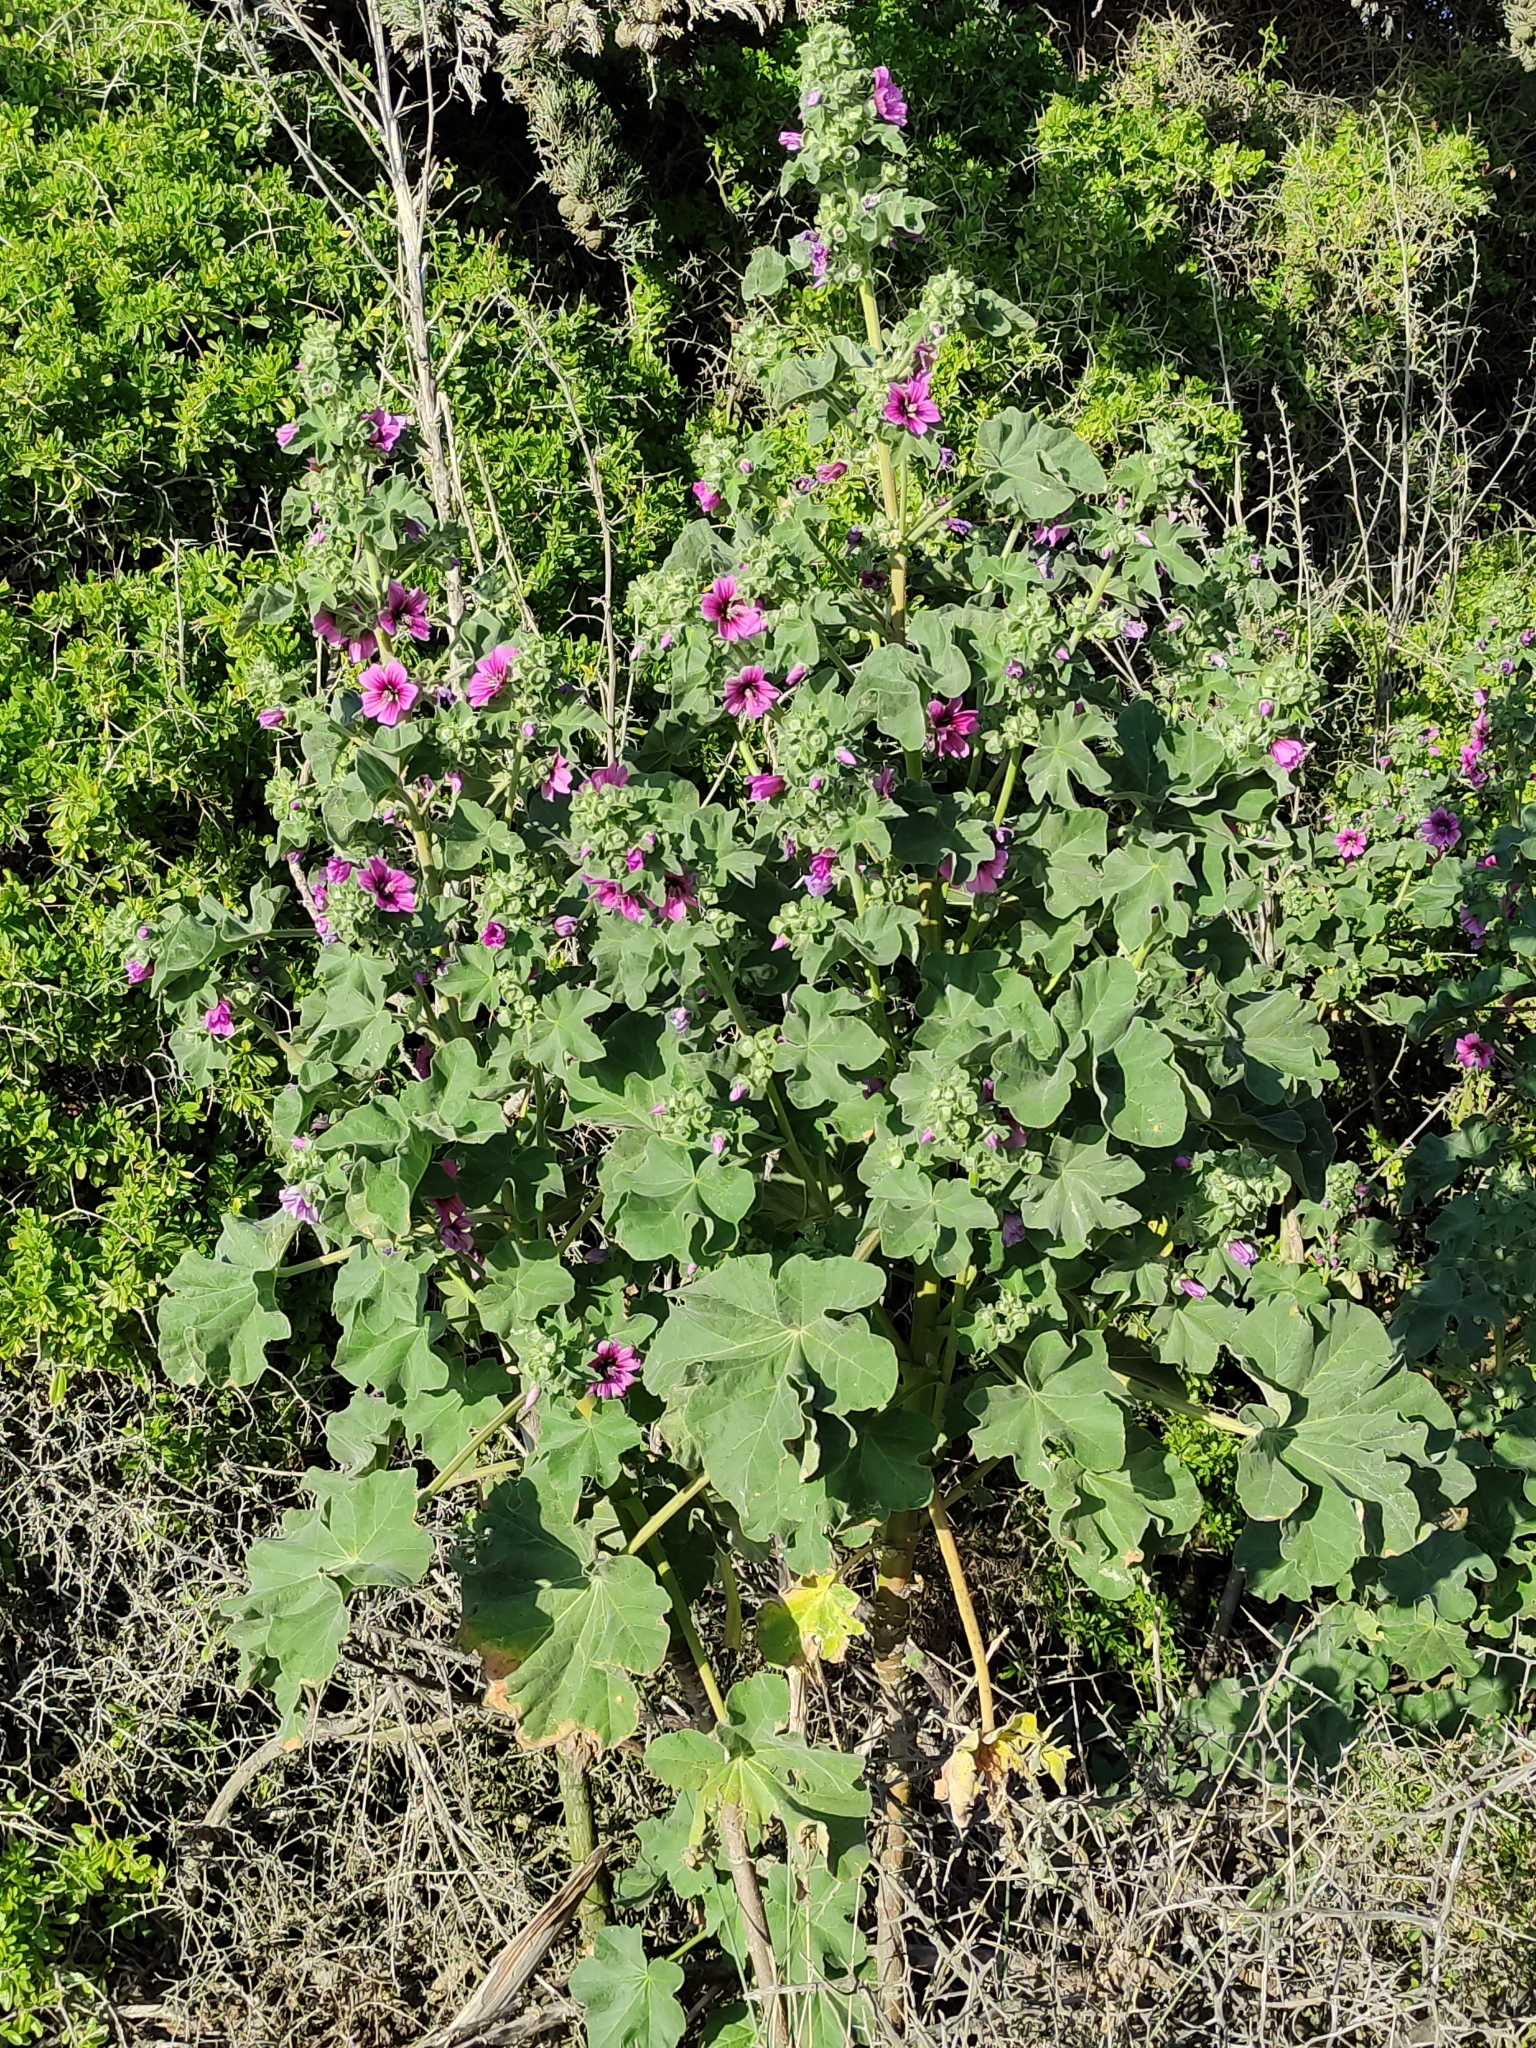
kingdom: Plantae
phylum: Tracheophyta
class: Magnoliopsida
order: Malvales
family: Malvaceae
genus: Malva
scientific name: Malva arborea
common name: Tree mallow
